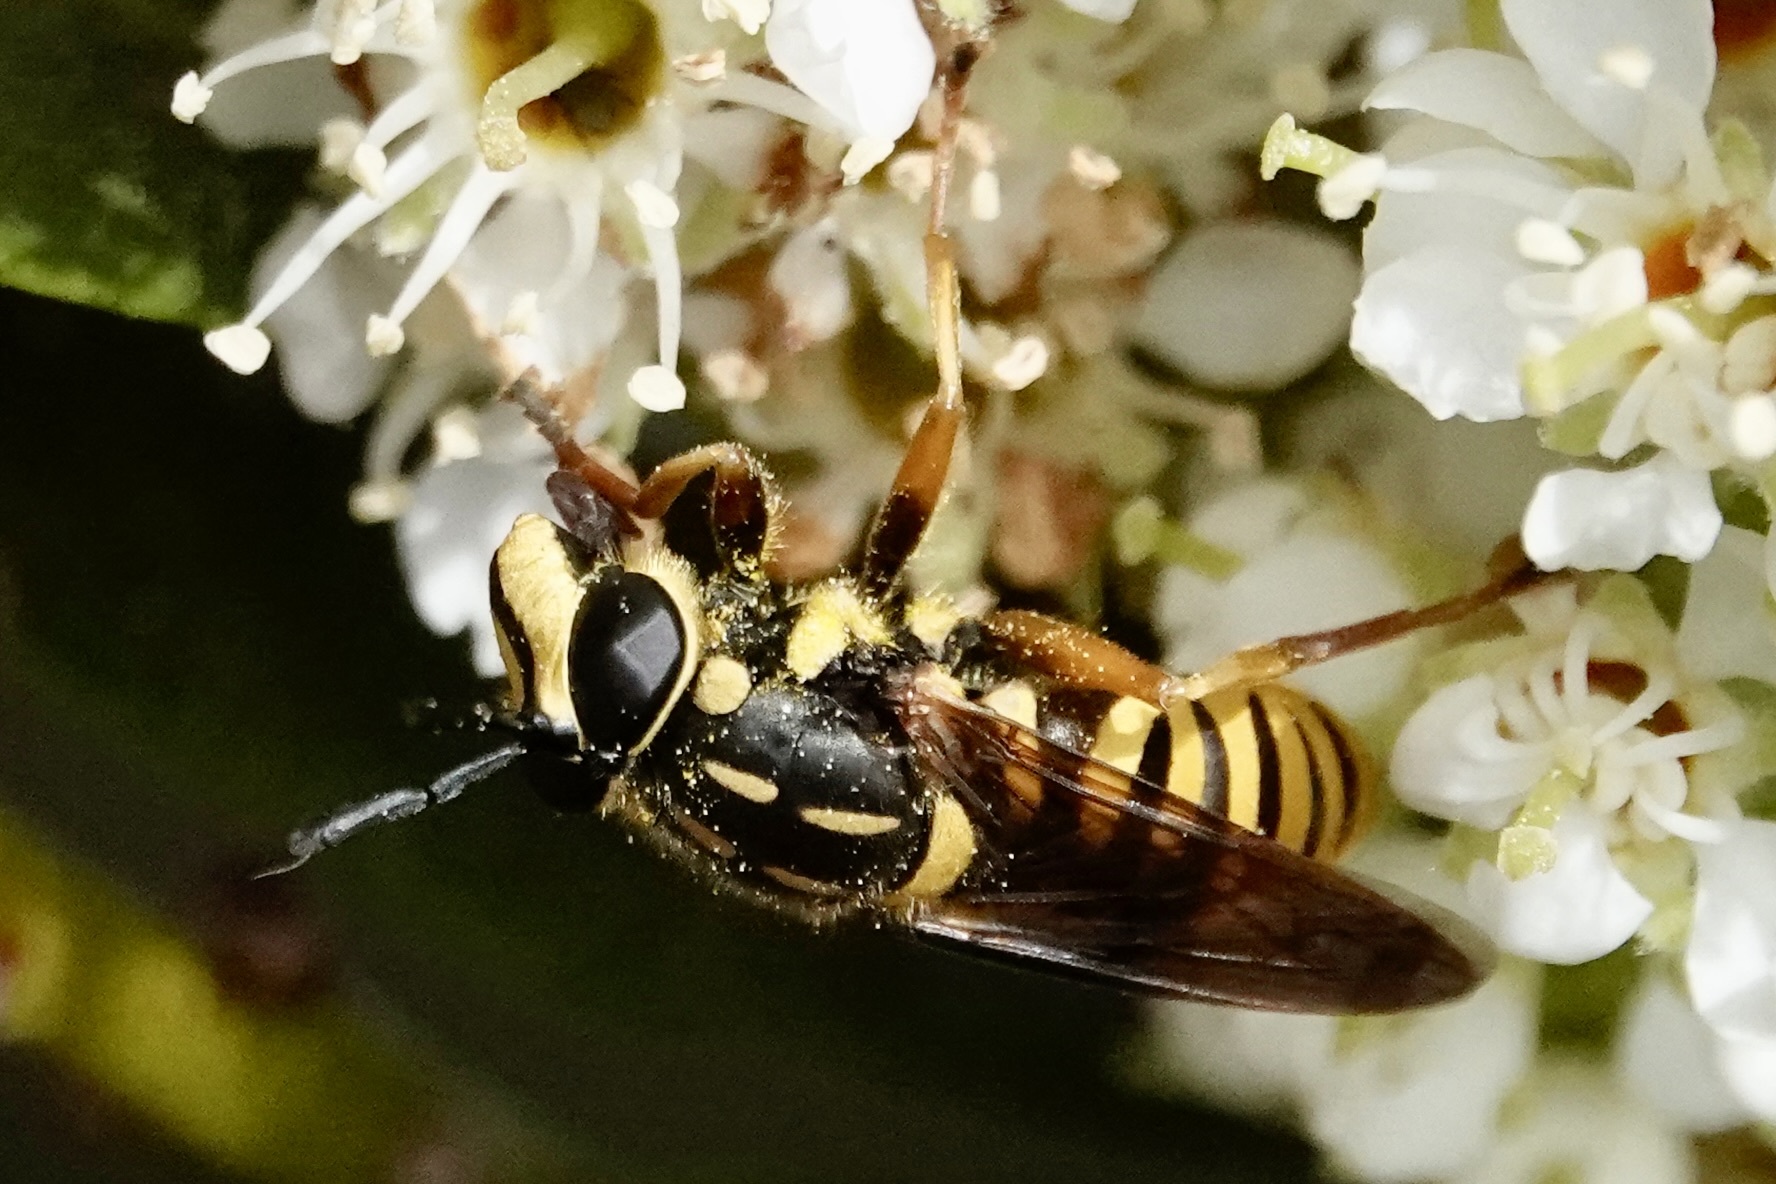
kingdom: Animalia
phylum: Arthropoda
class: Insecta
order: Diptera
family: Syrphidae
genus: Sphecomyia
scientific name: Sphecomyia vittata
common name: Long-horned yellowjacket fly
